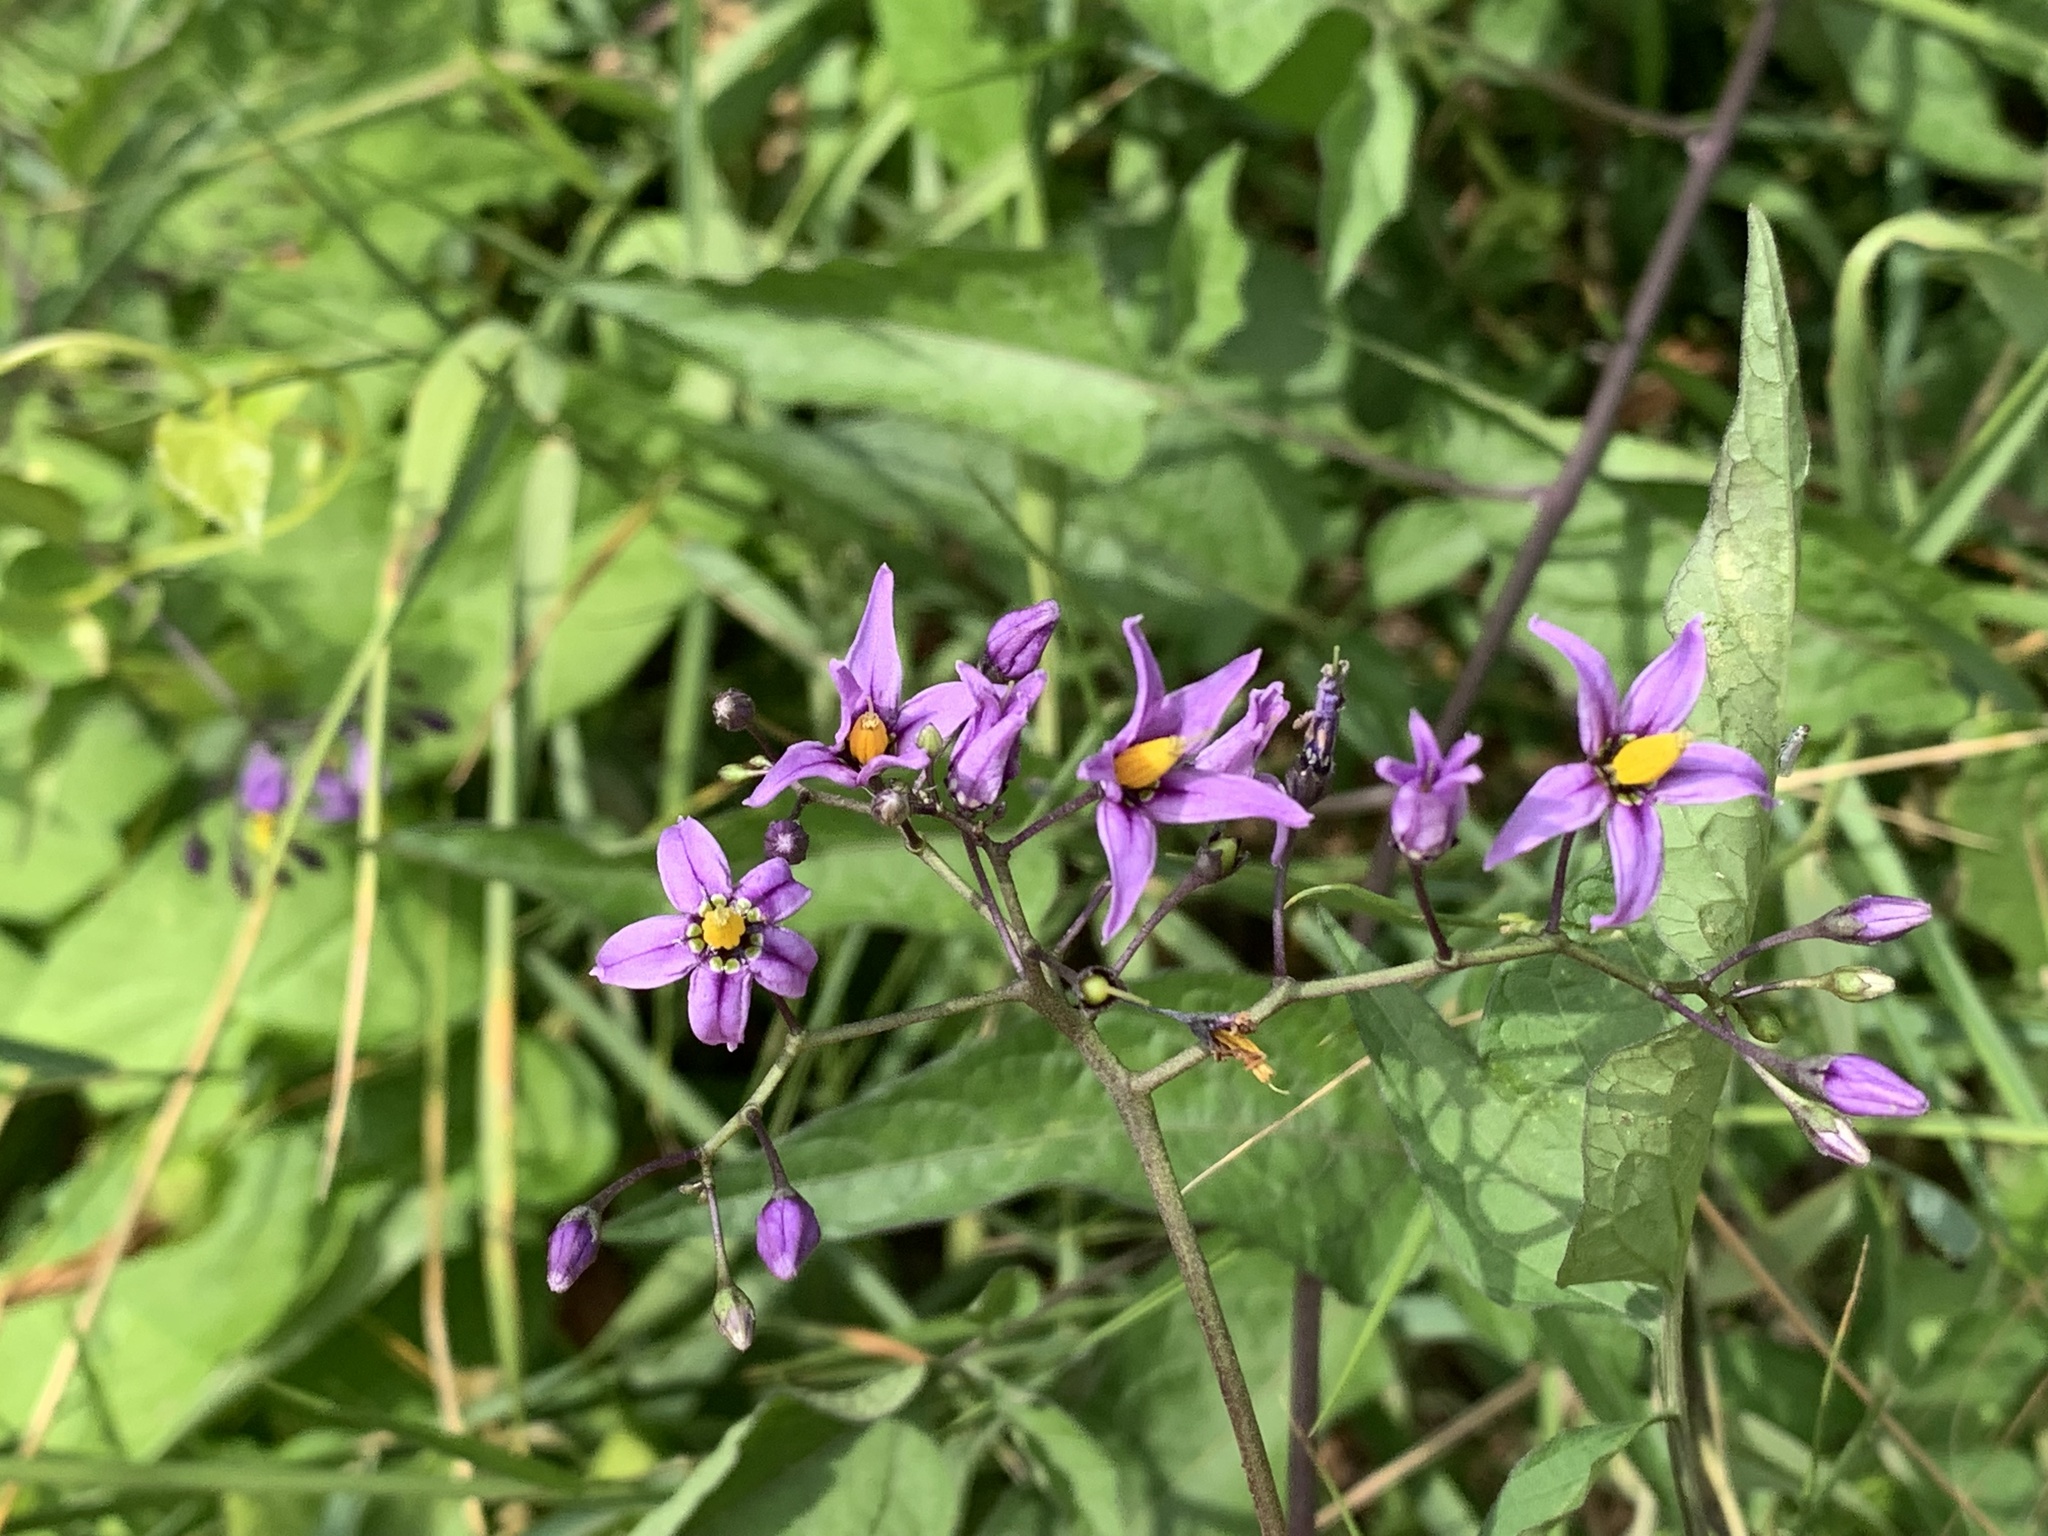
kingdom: Plantae
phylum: Tracheophyta
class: Magnoliopsida
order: Solanales
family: Solanaceae
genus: Solanum
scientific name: Solanum dulcamara
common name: Climbing nightshade
